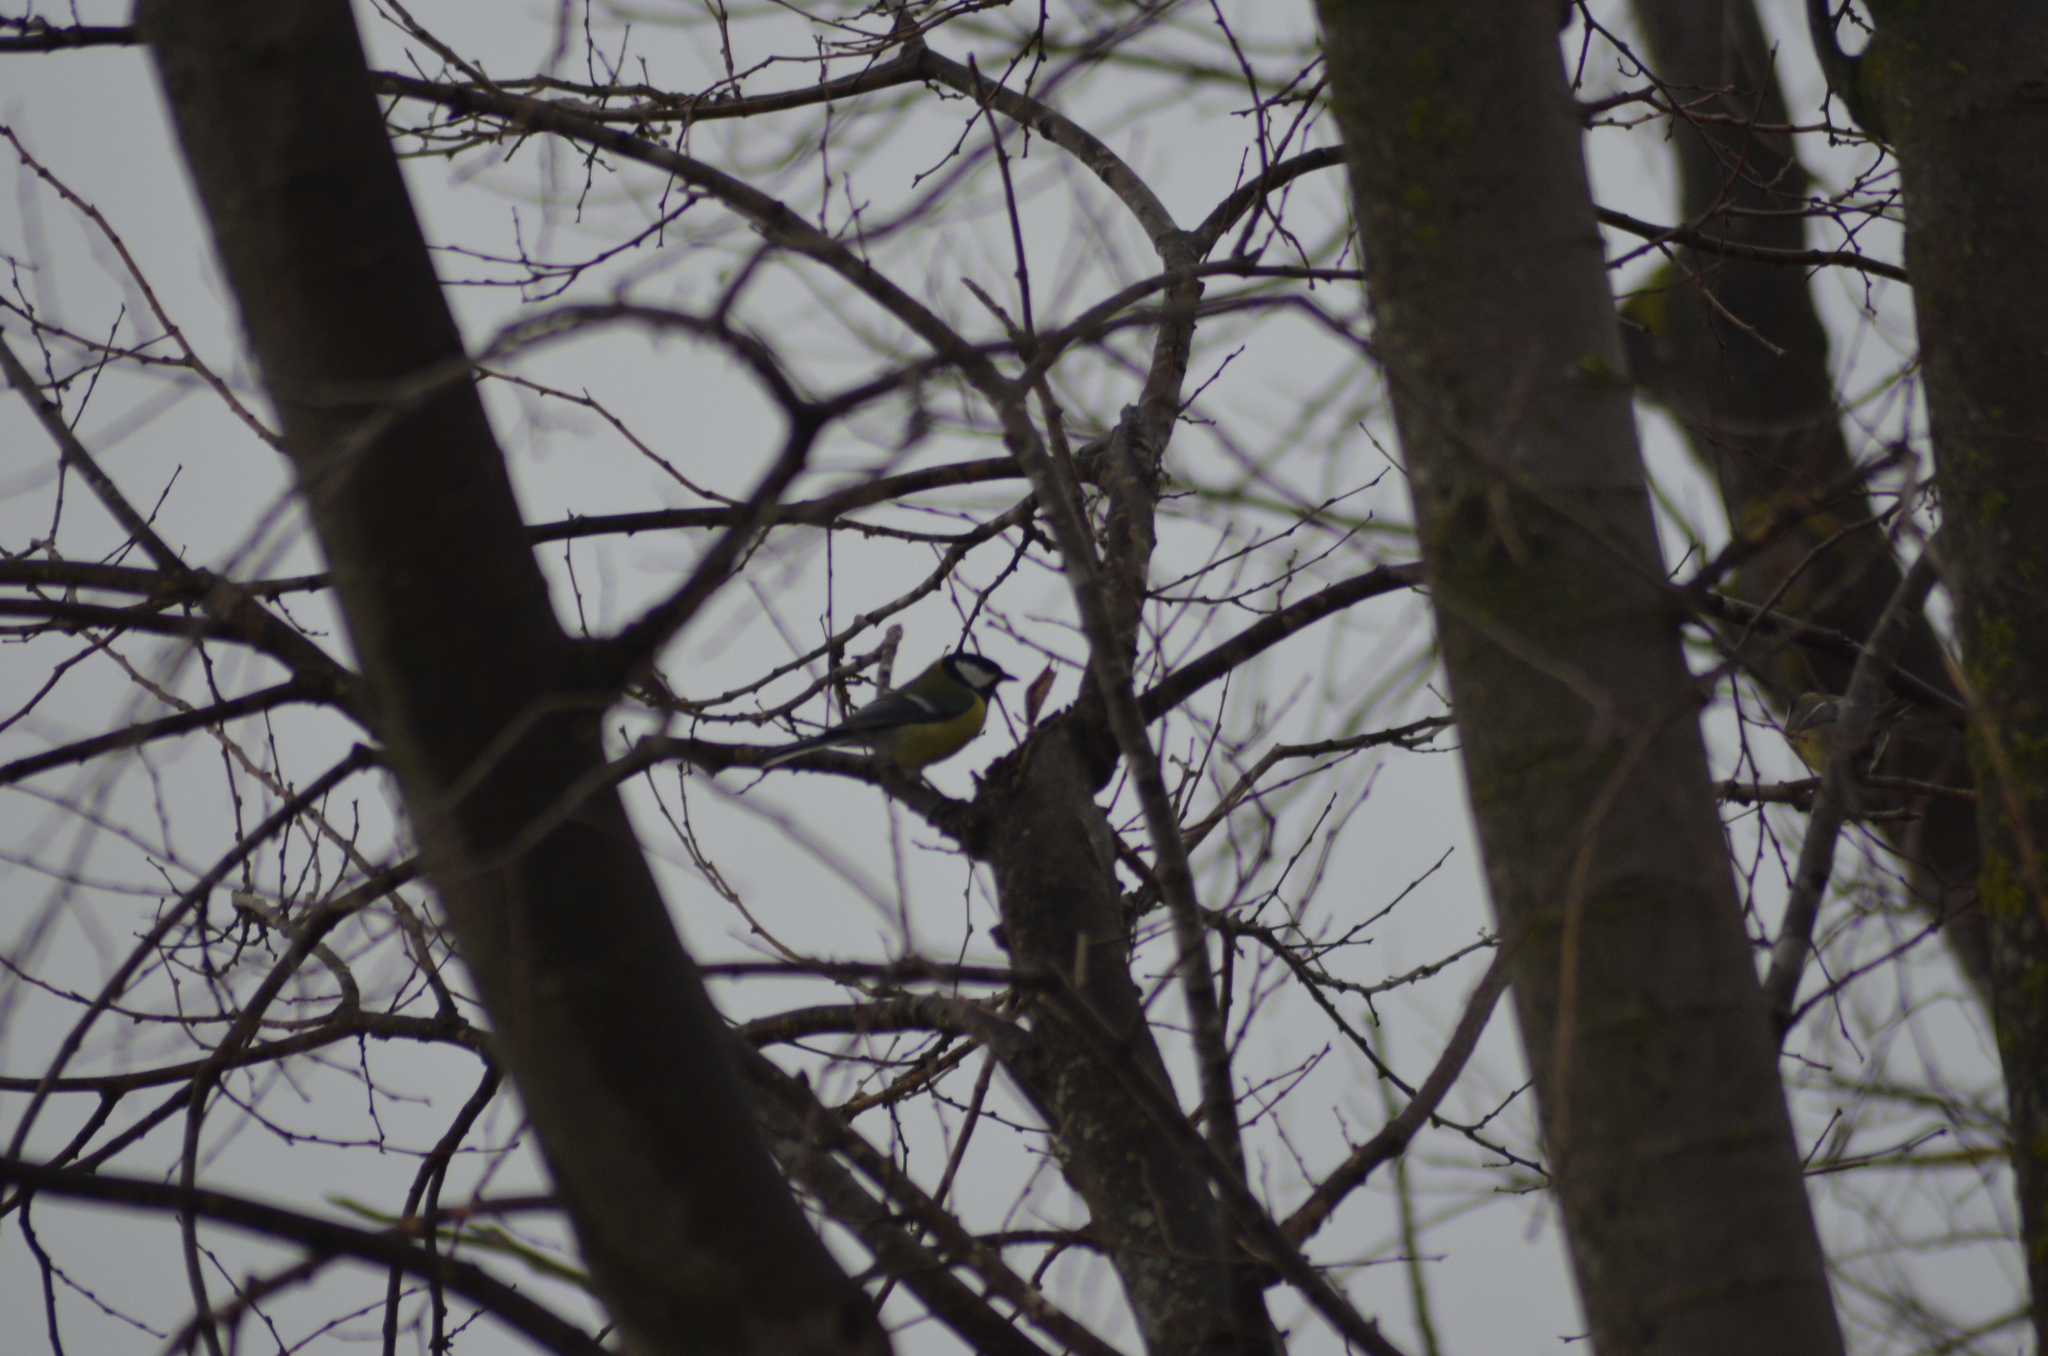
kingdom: Animalia
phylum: Chordata
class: Aves
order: Passeriformes
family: Paridae
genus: Parus
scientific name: Parus major
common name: Great tit
